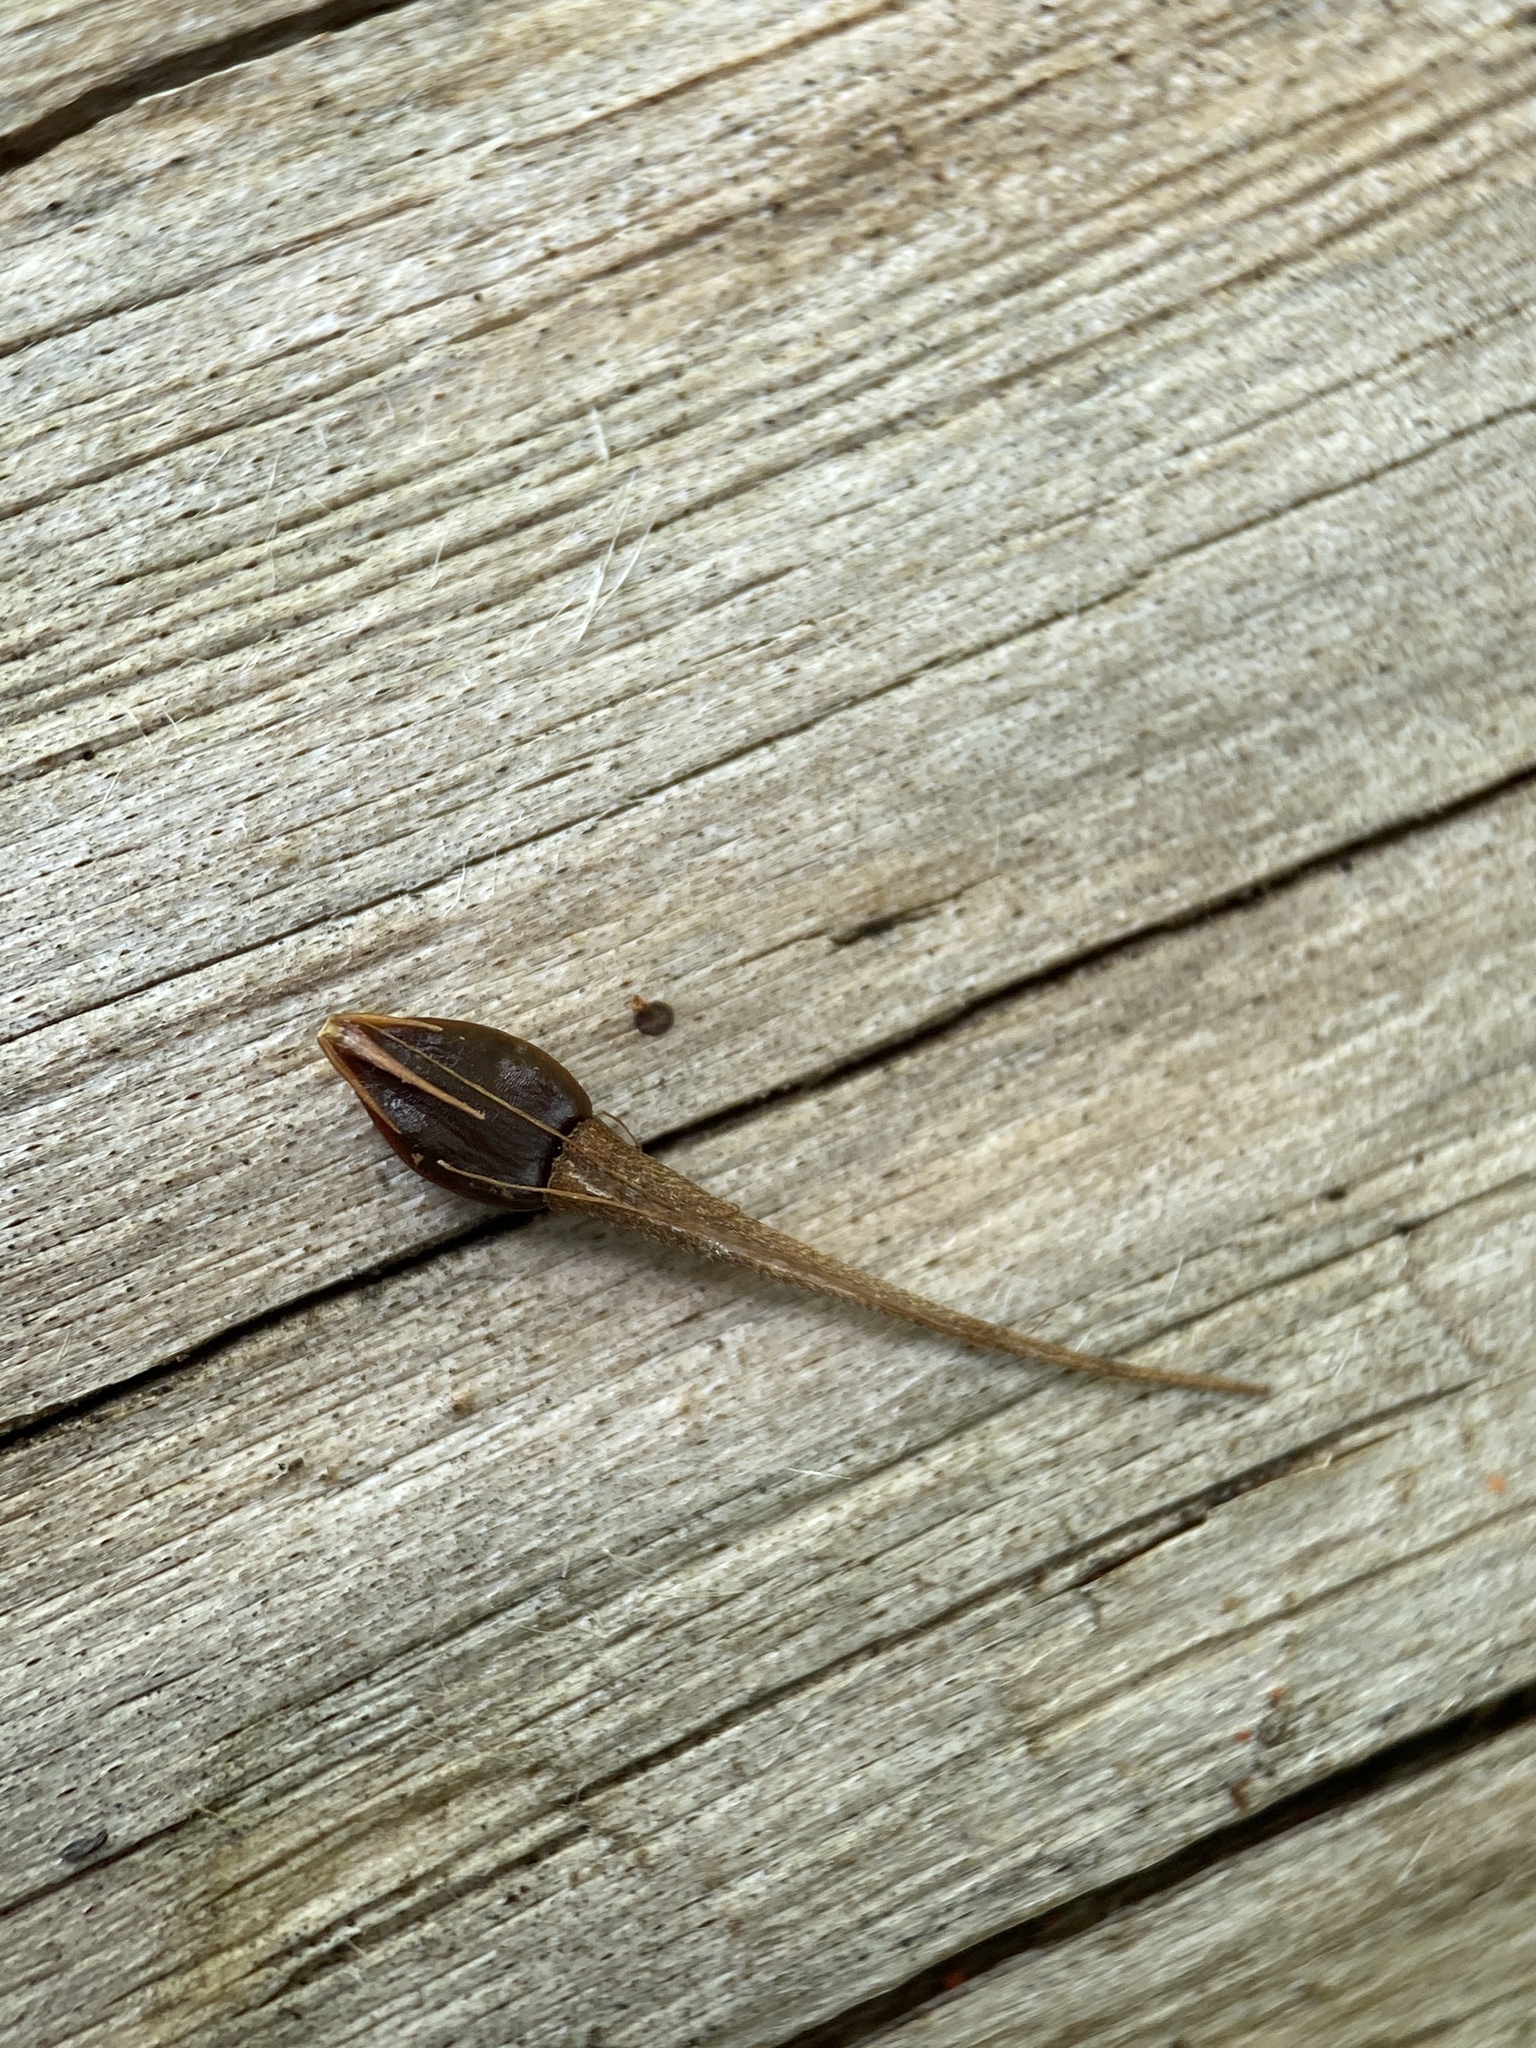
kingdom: Plantae
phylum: Tracheophyta
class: Liliopsida
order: Poales
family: Cyperaceae
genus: Rhynchospora
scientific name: Rhynchospora corniculata
